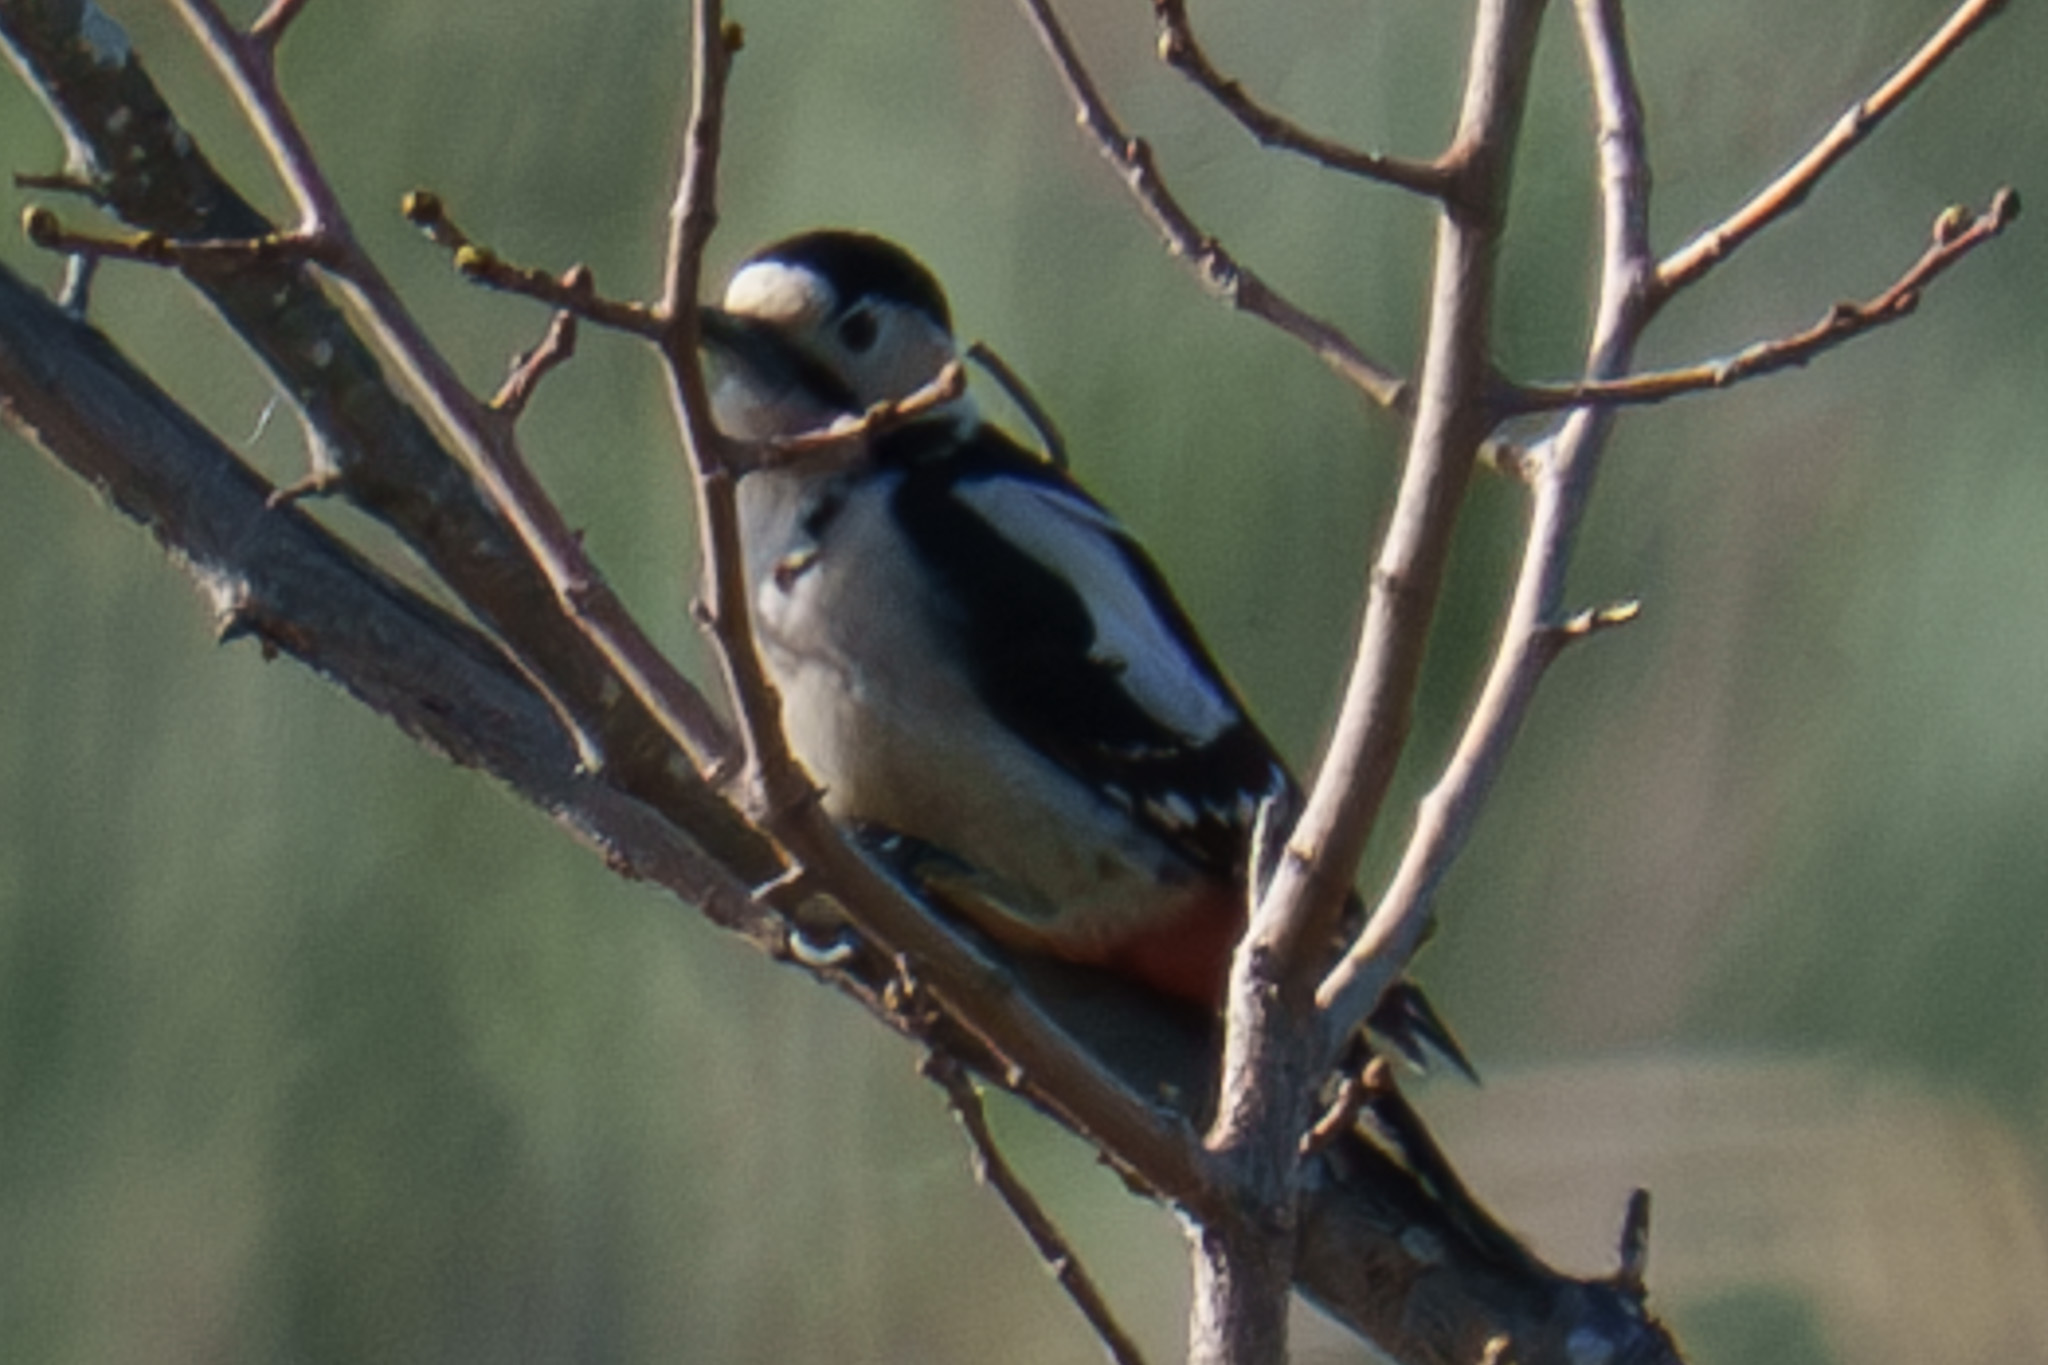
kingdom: Animalia
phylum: Chordata
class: Aves
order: Piciformes
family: Picidae
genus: Dendrocopos
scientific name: Dendrocopos syriacus
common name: Syrian woodpecker
